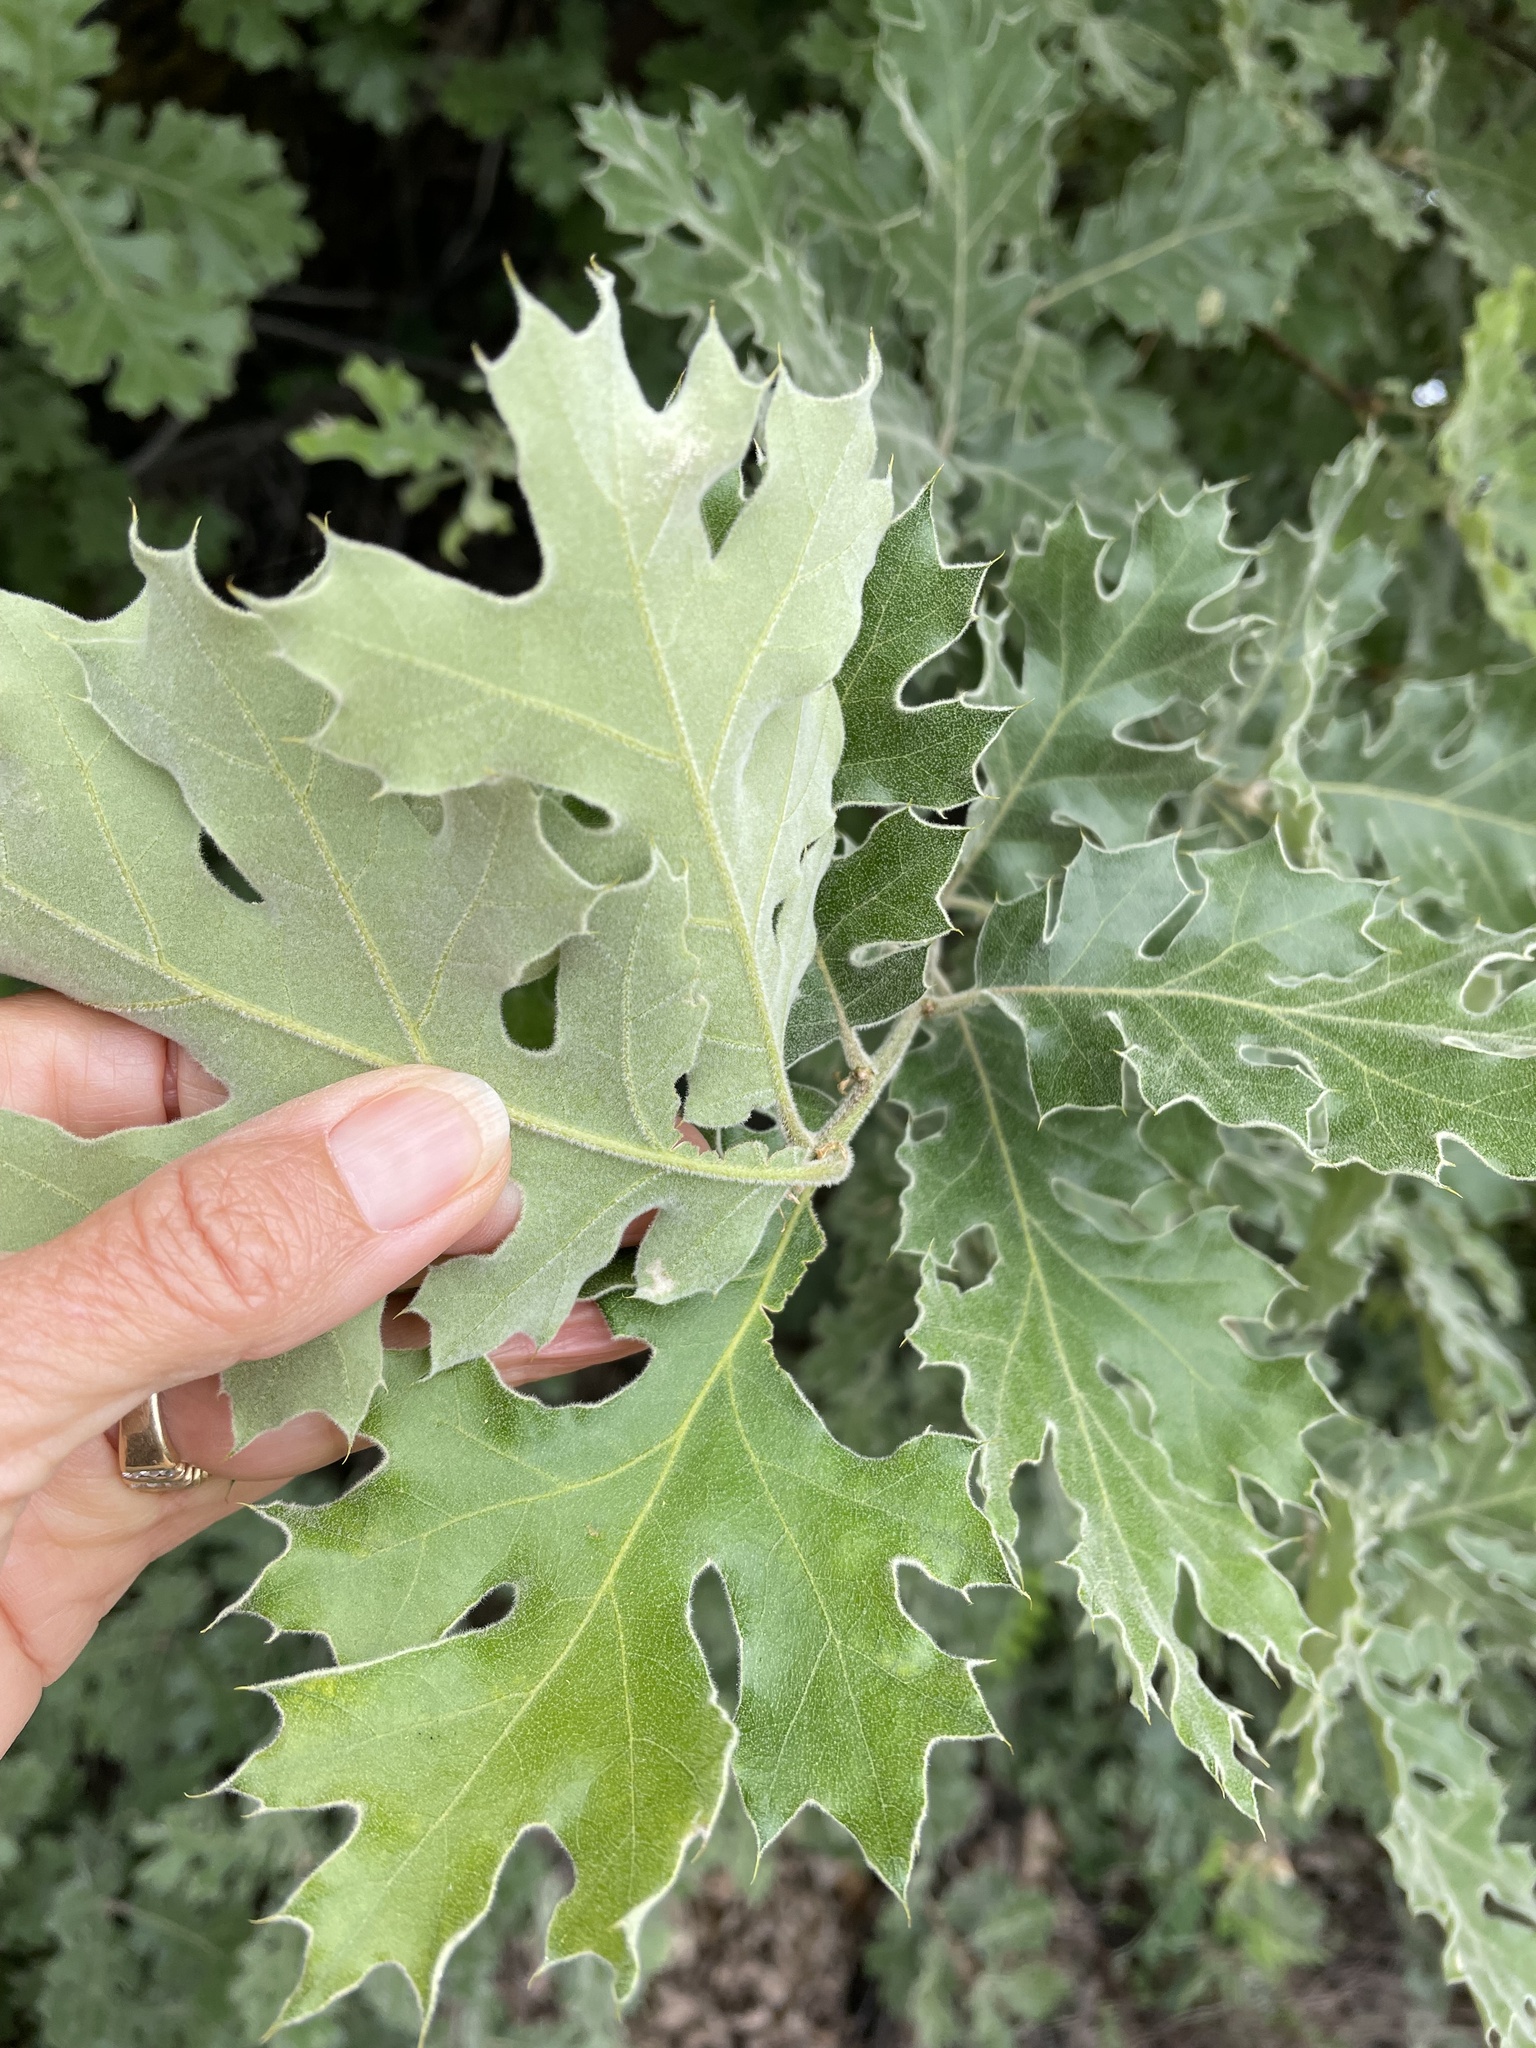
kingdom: Plantae
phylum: Tracheophyta
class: Magnoliopsida
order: Fagales
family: Fagaceae
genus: Quercus
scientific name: Quercus kelloggii
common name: California black oak
